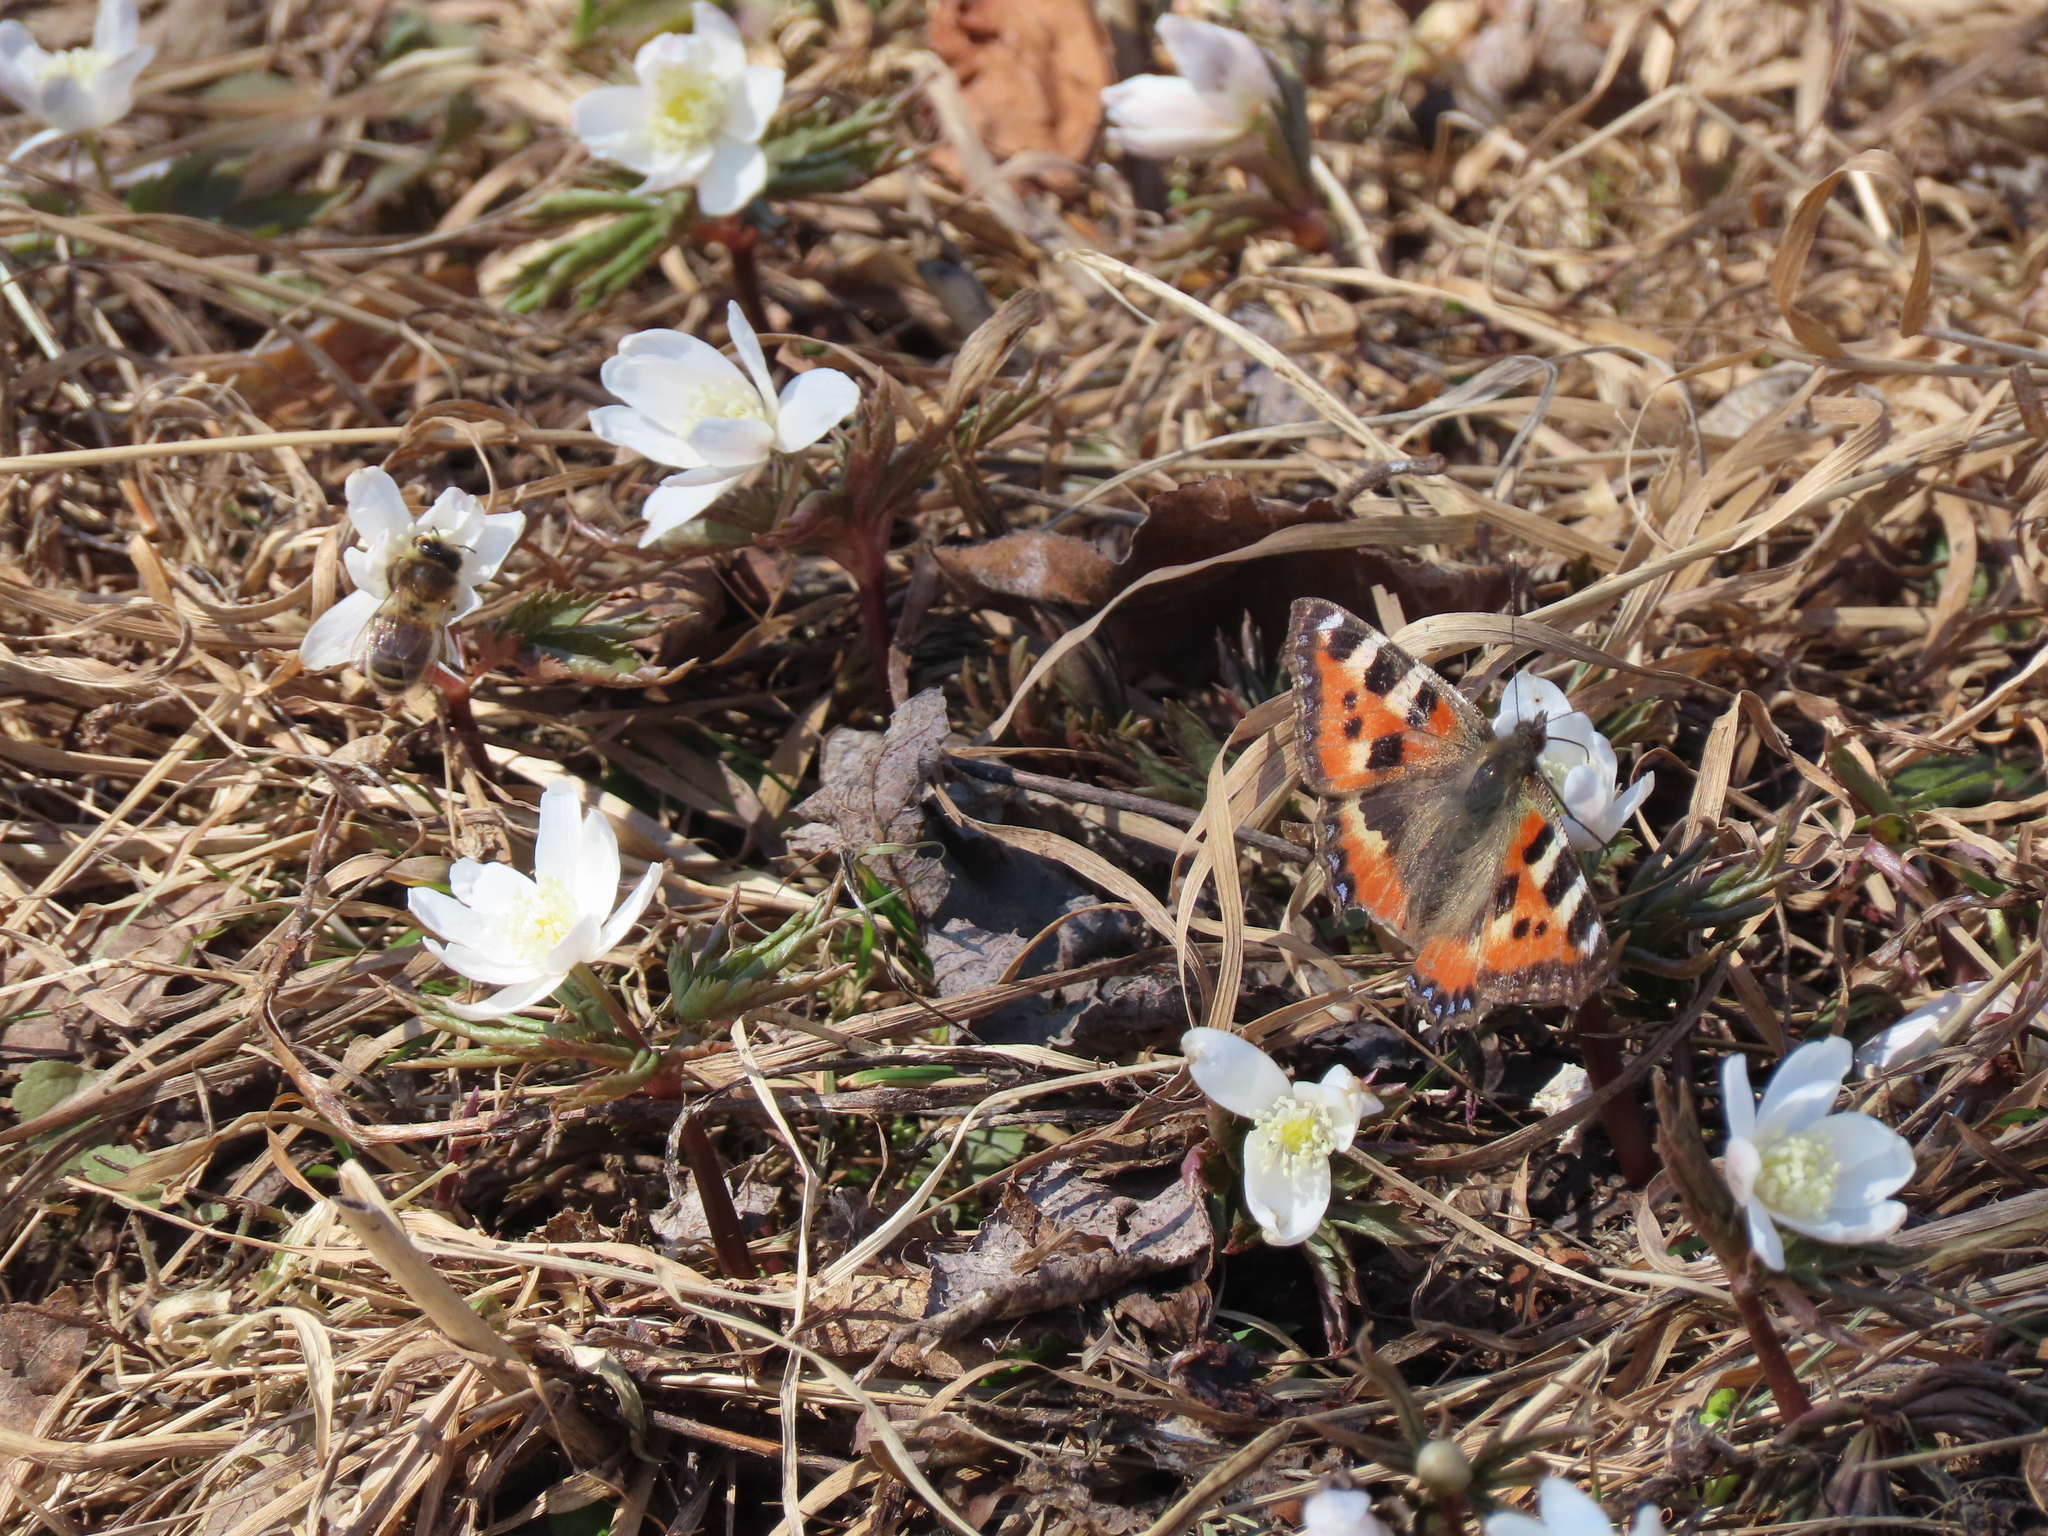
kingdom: Animalia
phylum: Arthropoda
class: Insecta
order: Lepidoptera
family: Nymphalidae
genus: Aglais
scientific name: Aglais urticae
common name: Small tortoiseshell
